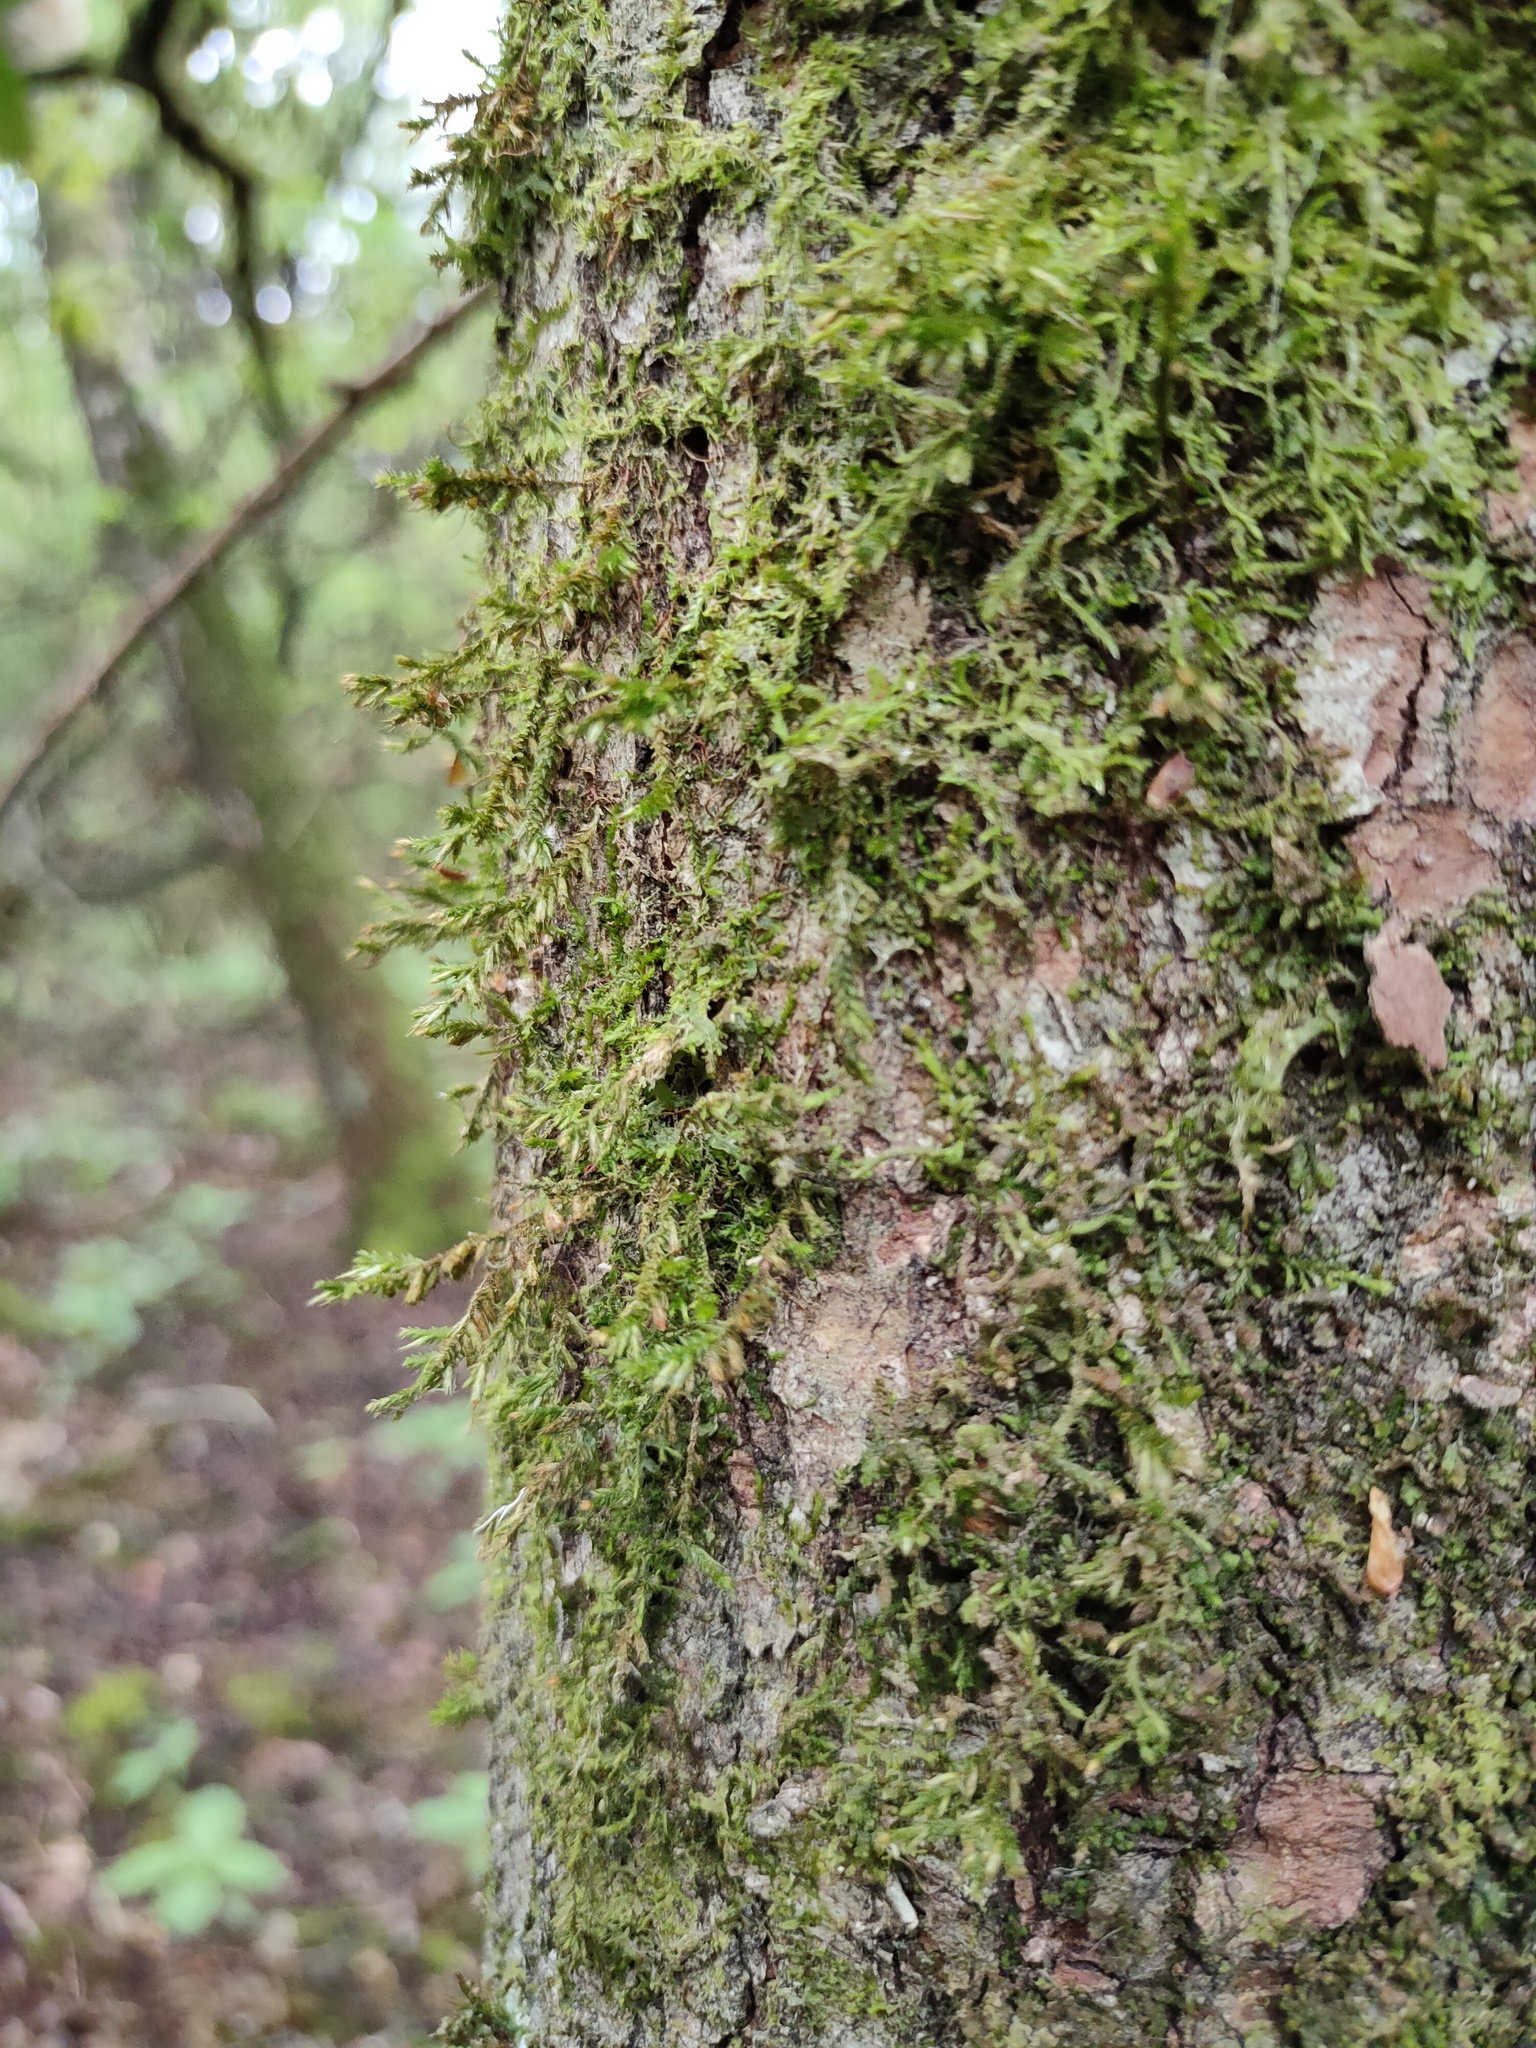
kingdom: Plantae
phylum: Bryophyta
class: Bryopsida
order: Hypnales
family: Cryphaeaceae
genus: Cryphaea
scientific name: Cryphaea heteromalla
